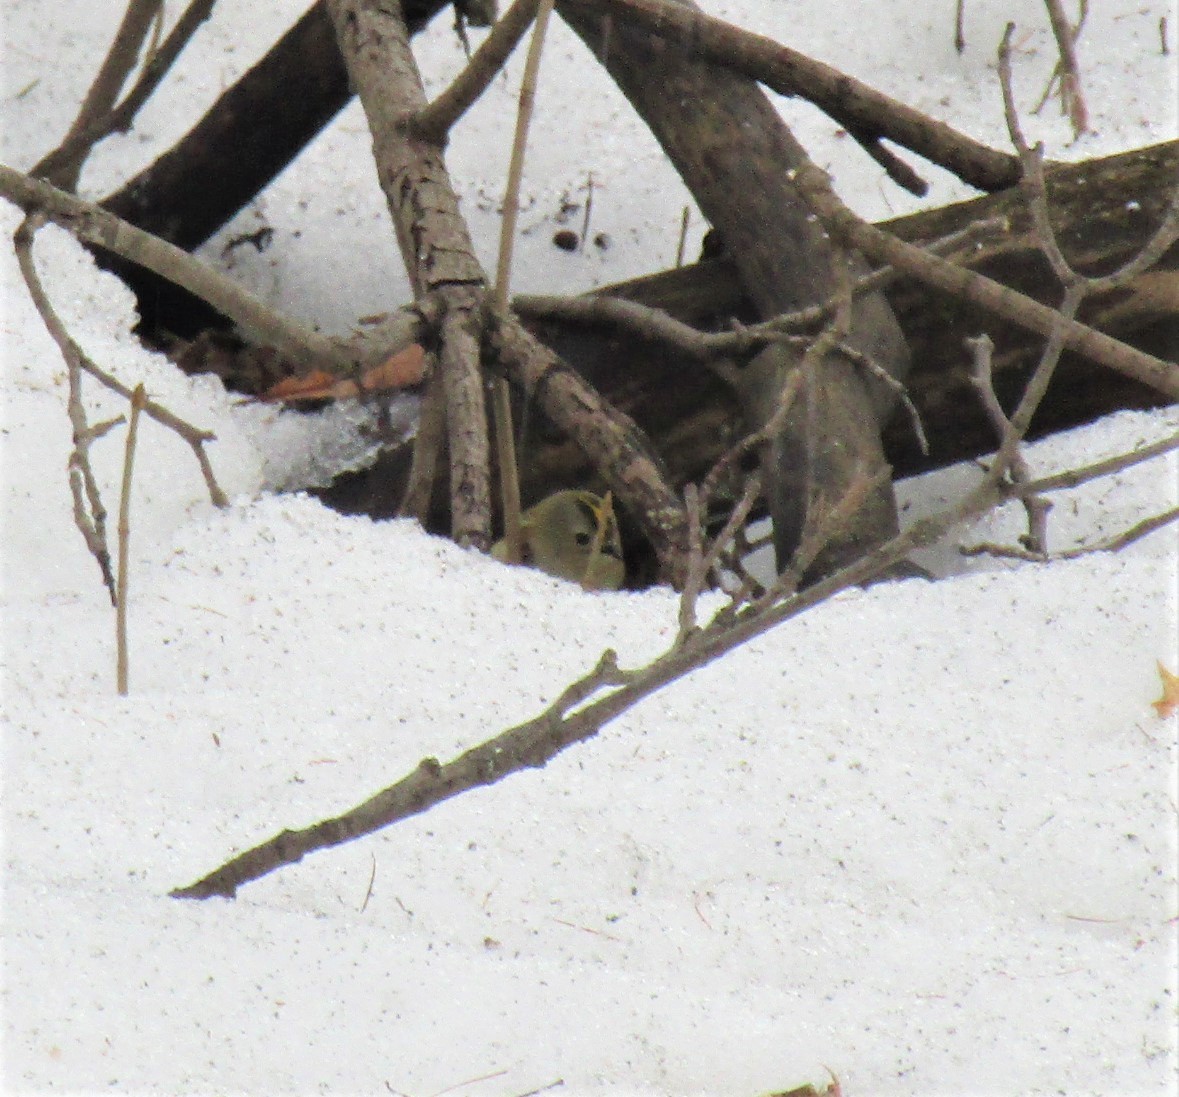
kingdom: Animalia
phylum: Chordata
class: Aves
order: Passeriformes
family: Regulidae
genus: Regulus
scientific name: Regulus regulus
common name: Goldcrest
